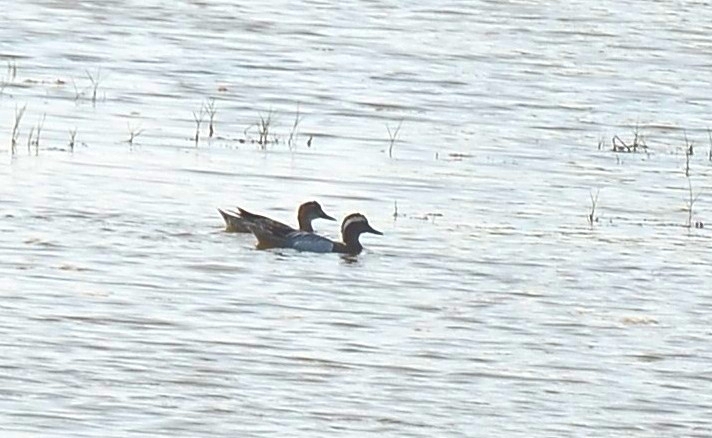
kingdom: Animalia
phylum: Chordata
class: Aves
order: Anseriformes
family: Anatidae
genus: Spatula
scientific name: Spatula querquedula
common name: Garganey
